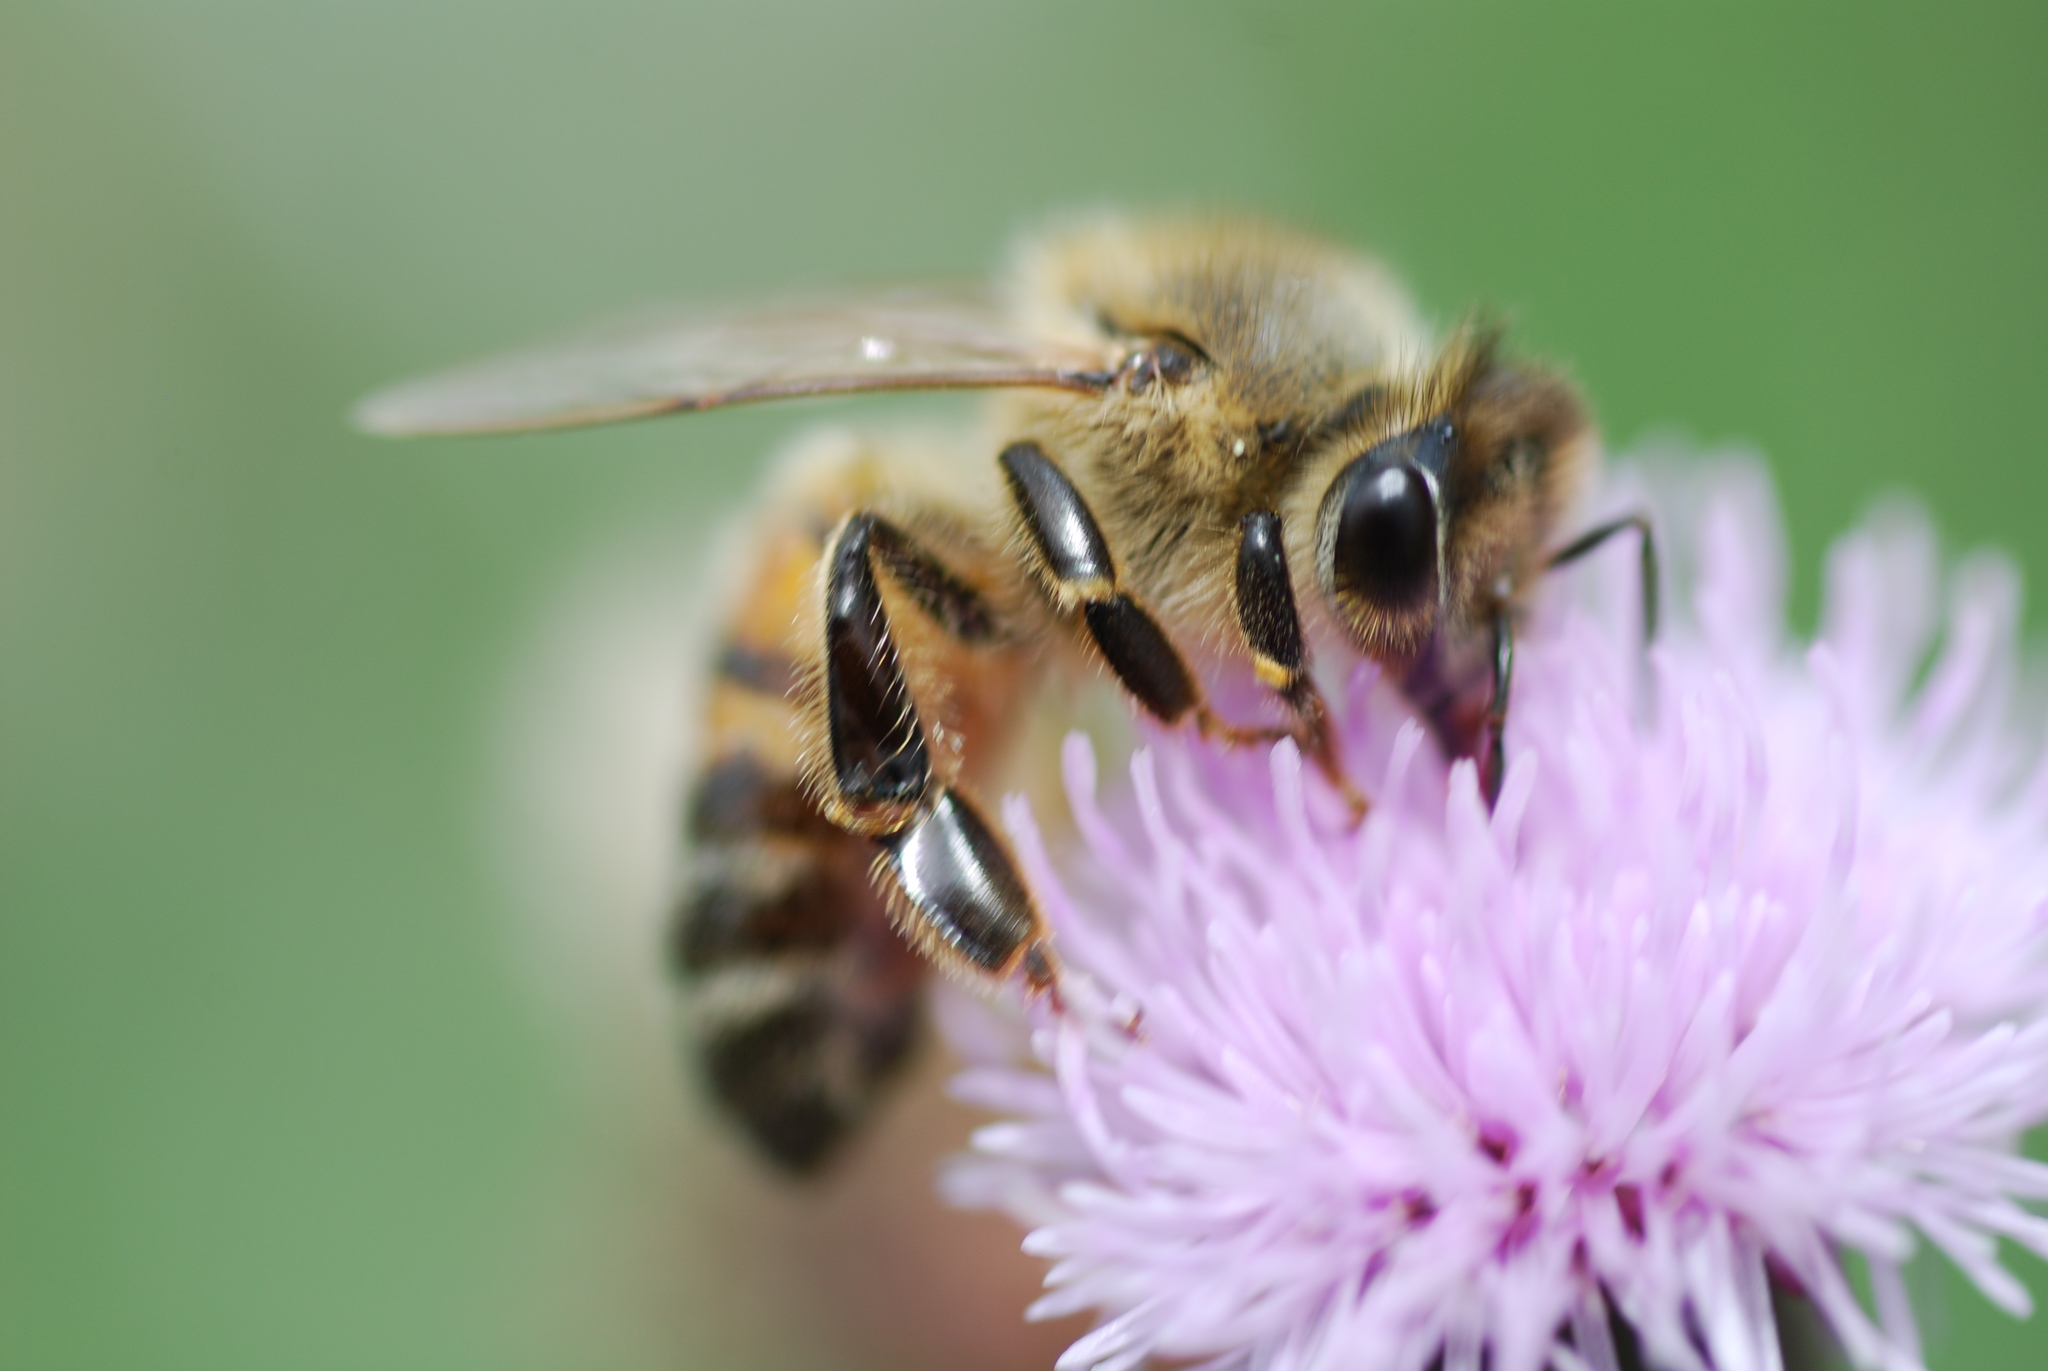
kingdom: Animalia
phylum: Arthropoda
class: Insecta
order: Hymenoptera
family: Apidae
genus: Apis
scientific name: Apis mellifera
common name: Honey bee
